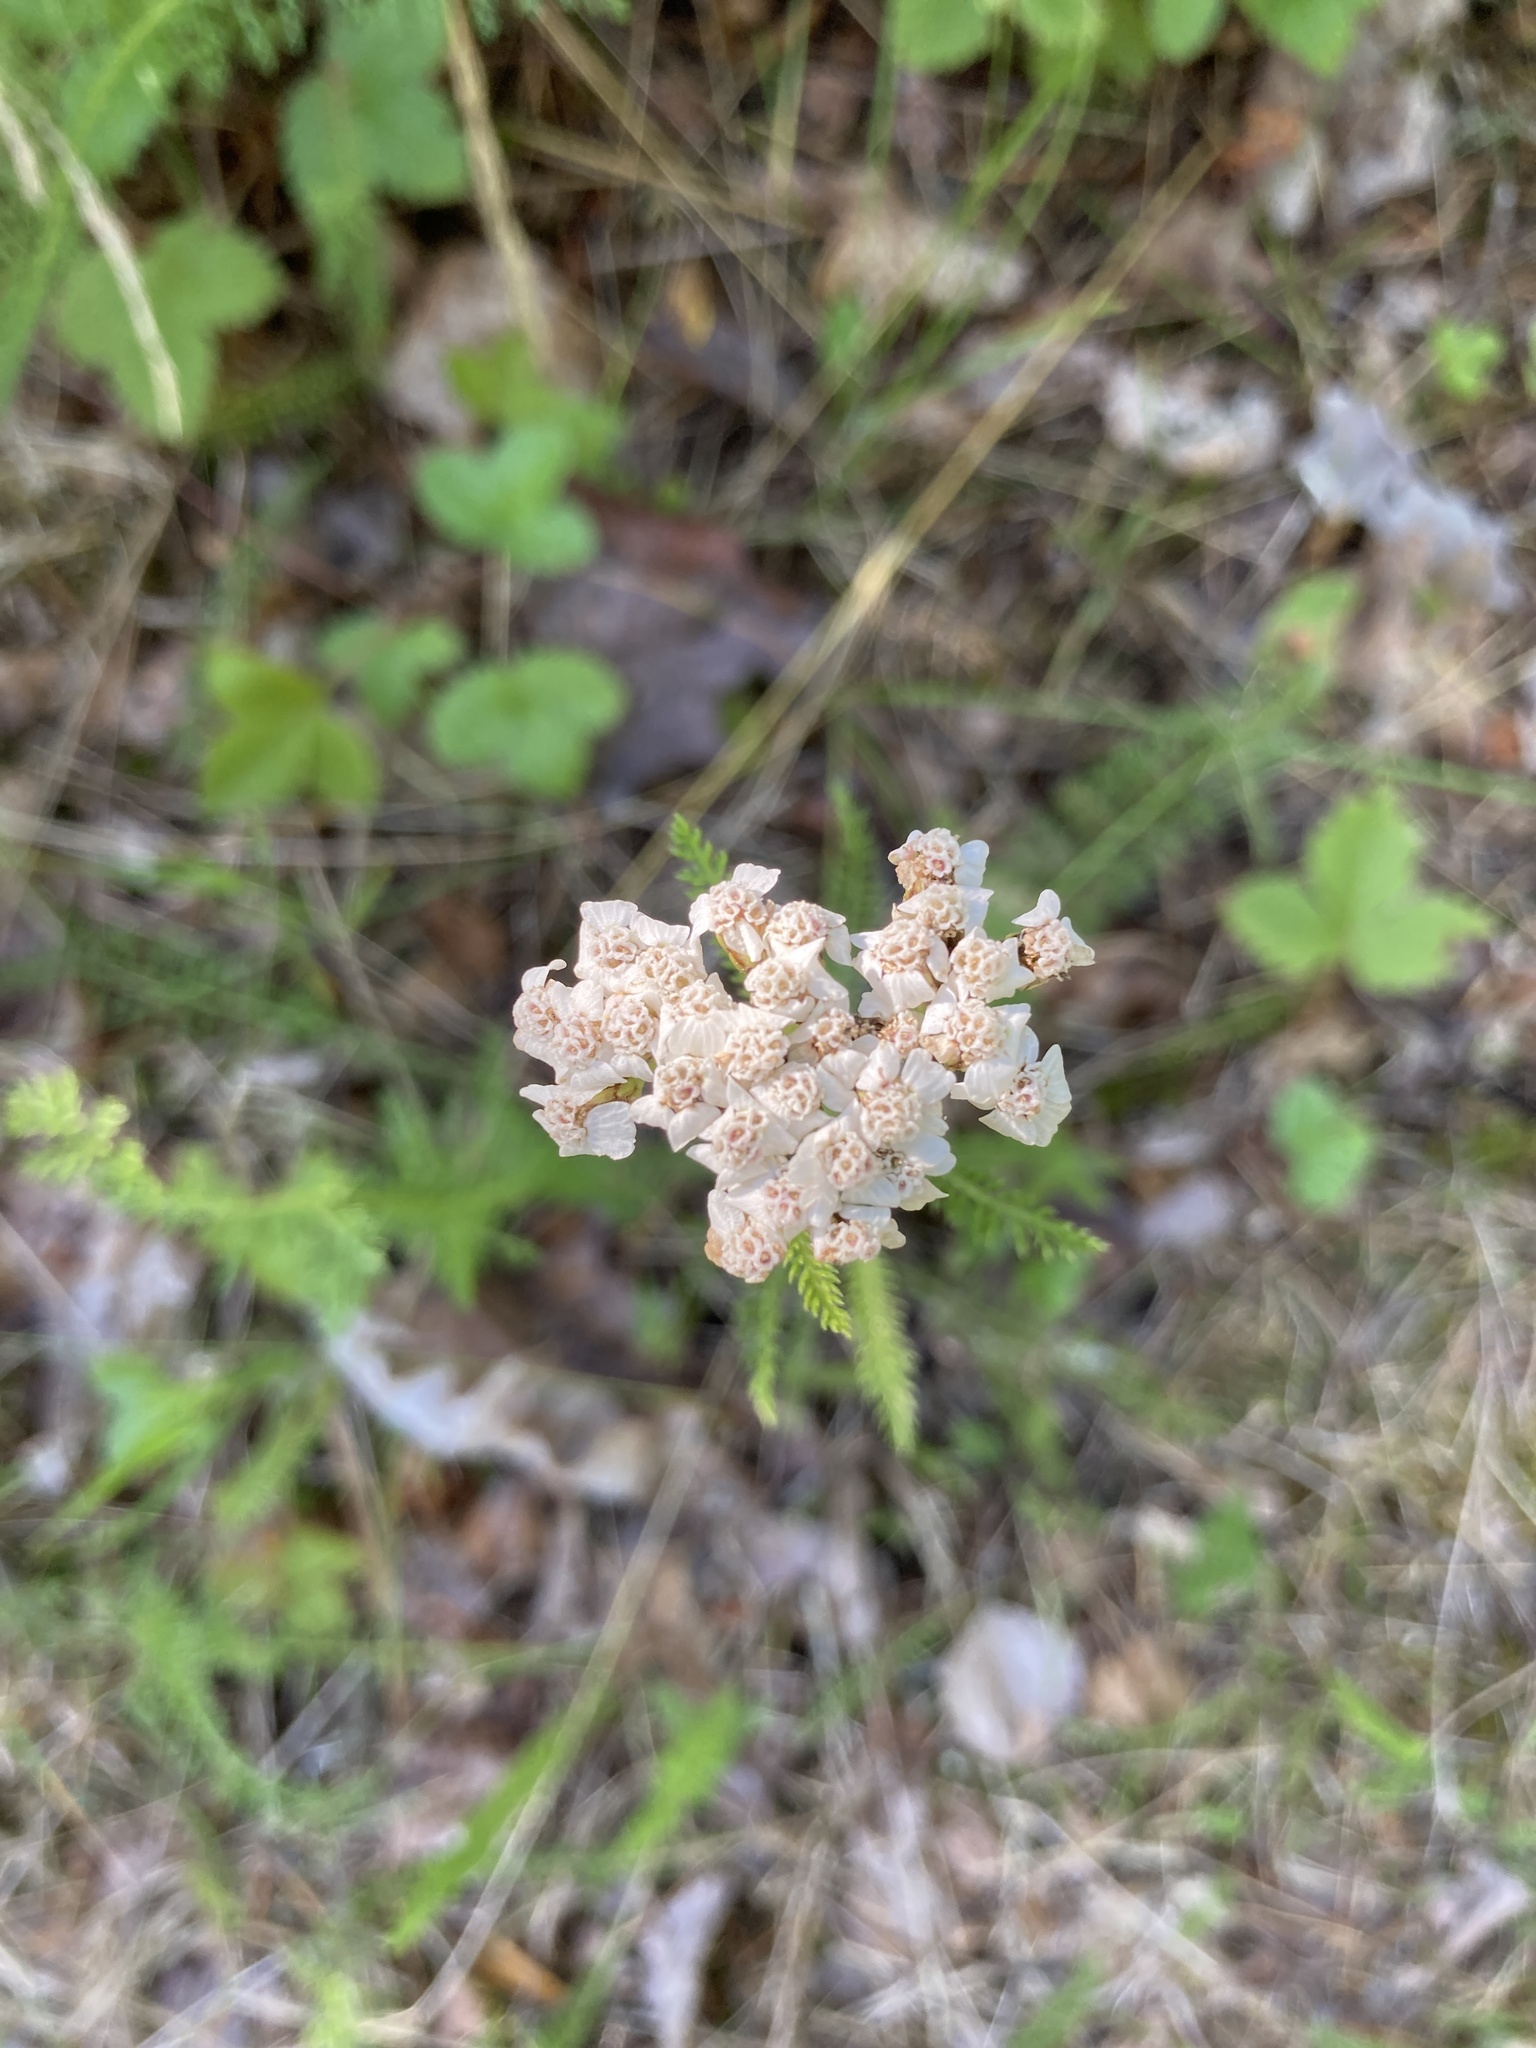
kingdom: Plantae
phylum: Tracheophyta
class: Magnoliopsida
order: Asterales
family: Asteraceae
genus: Achillea
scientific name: Achillea millefolium
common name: Yarrow
